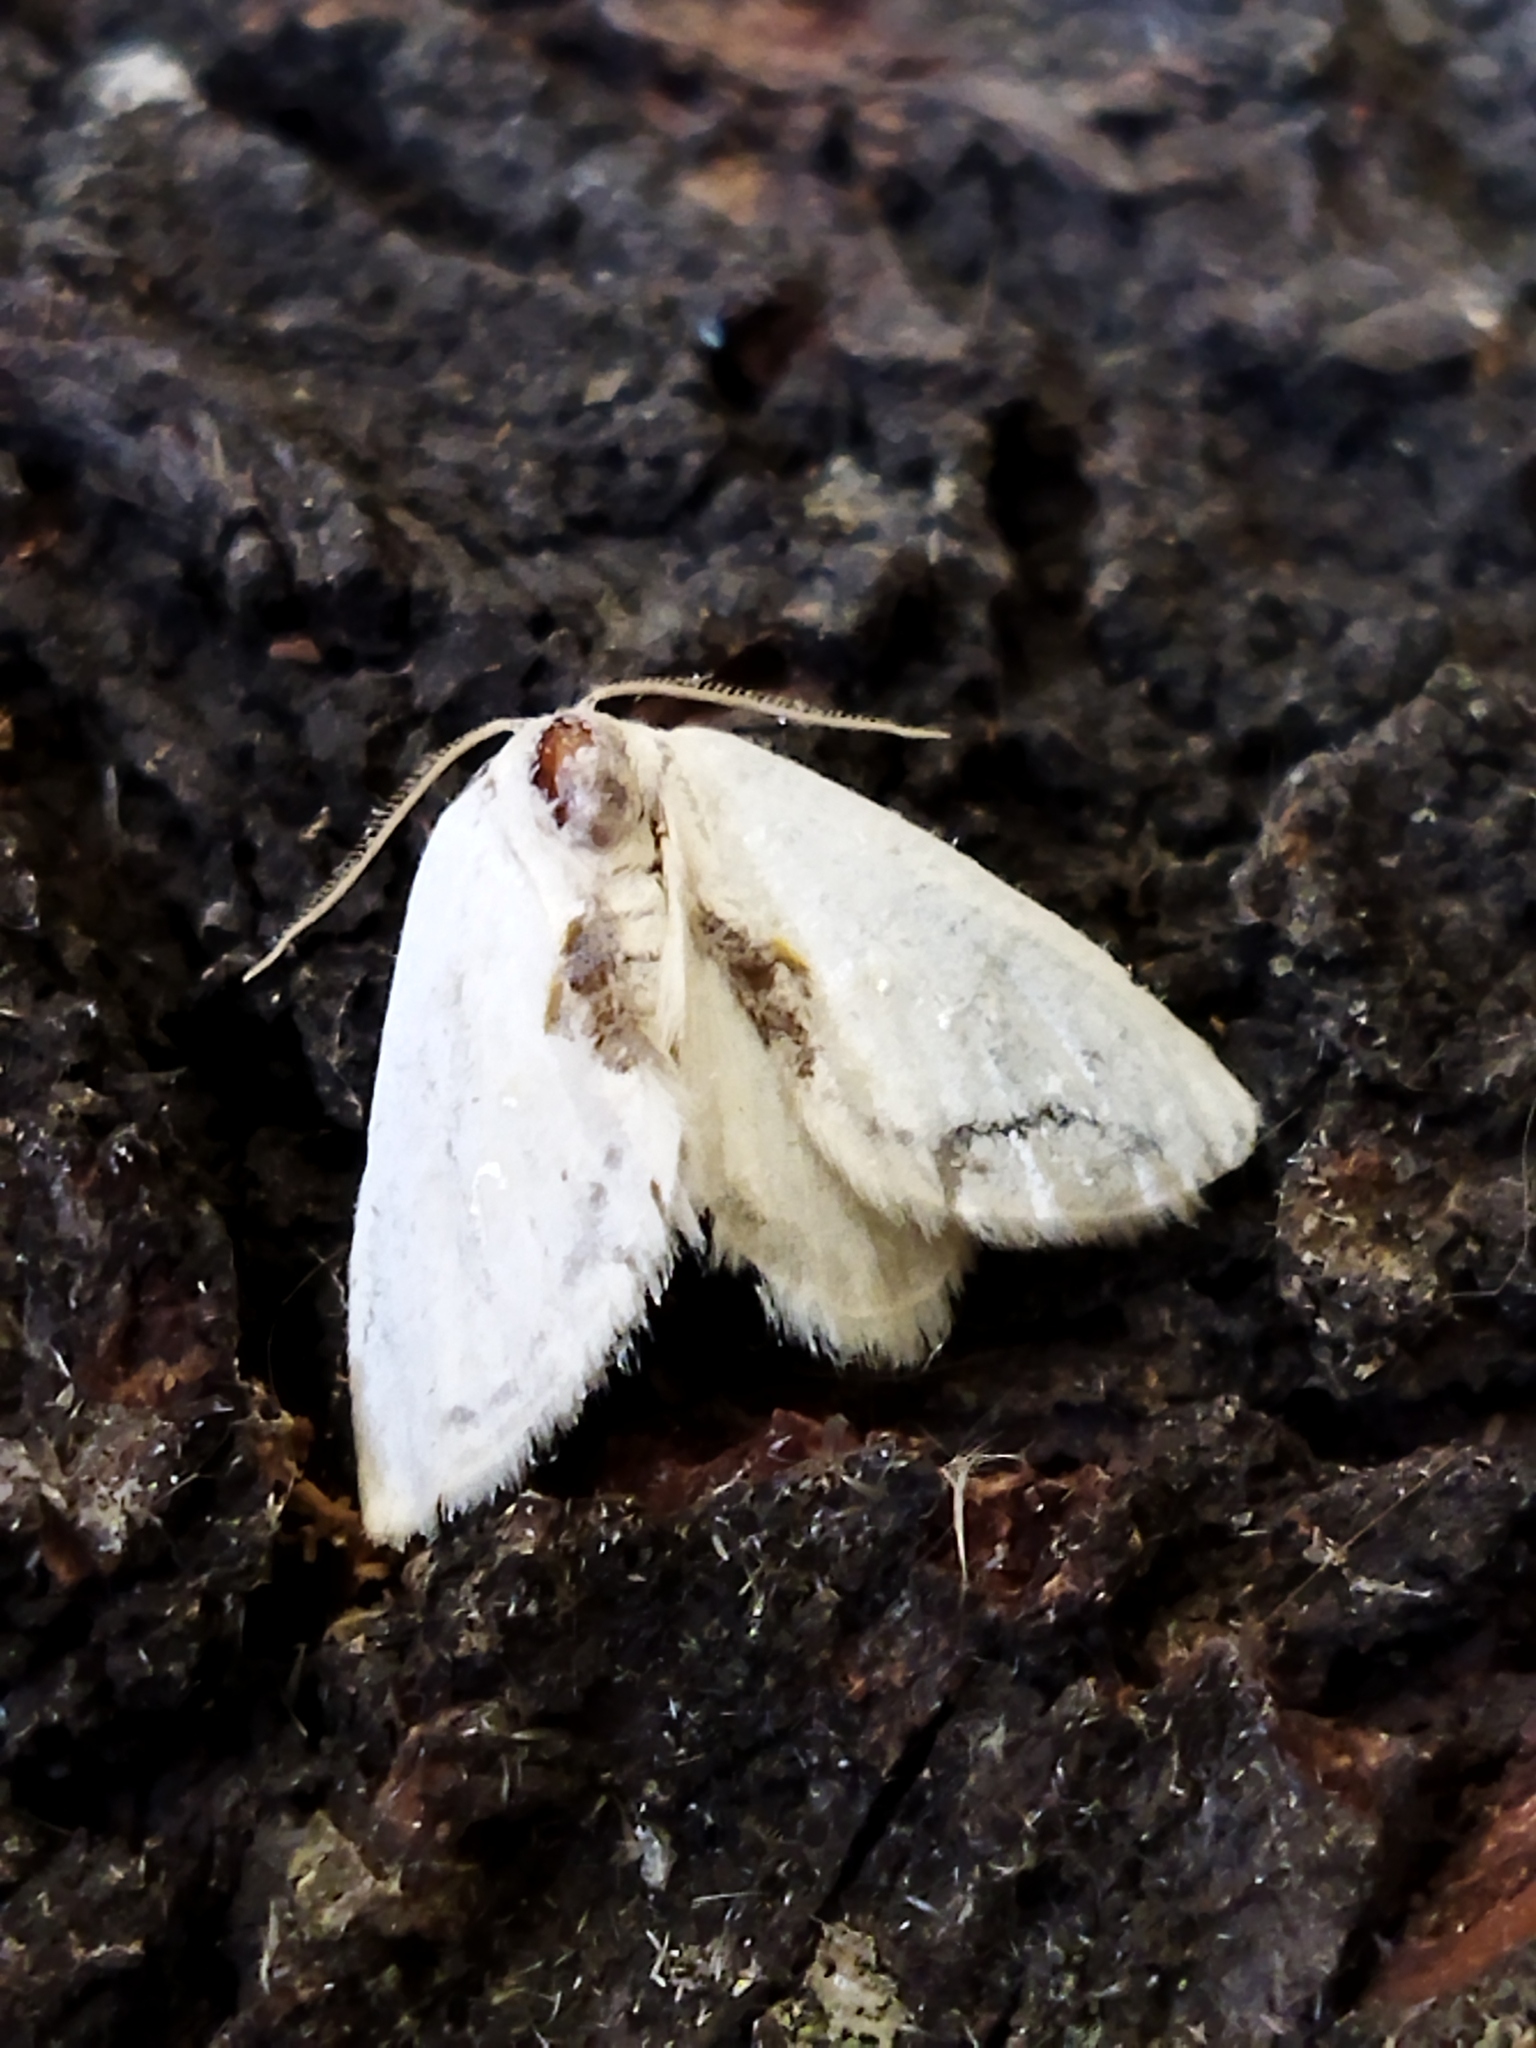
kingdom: Animalia
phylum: Arthropoda
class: Insecta
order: Lepidoptera
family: Drepanidae
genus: Cilix
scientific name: Cilix glaucata
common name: Chinese character
